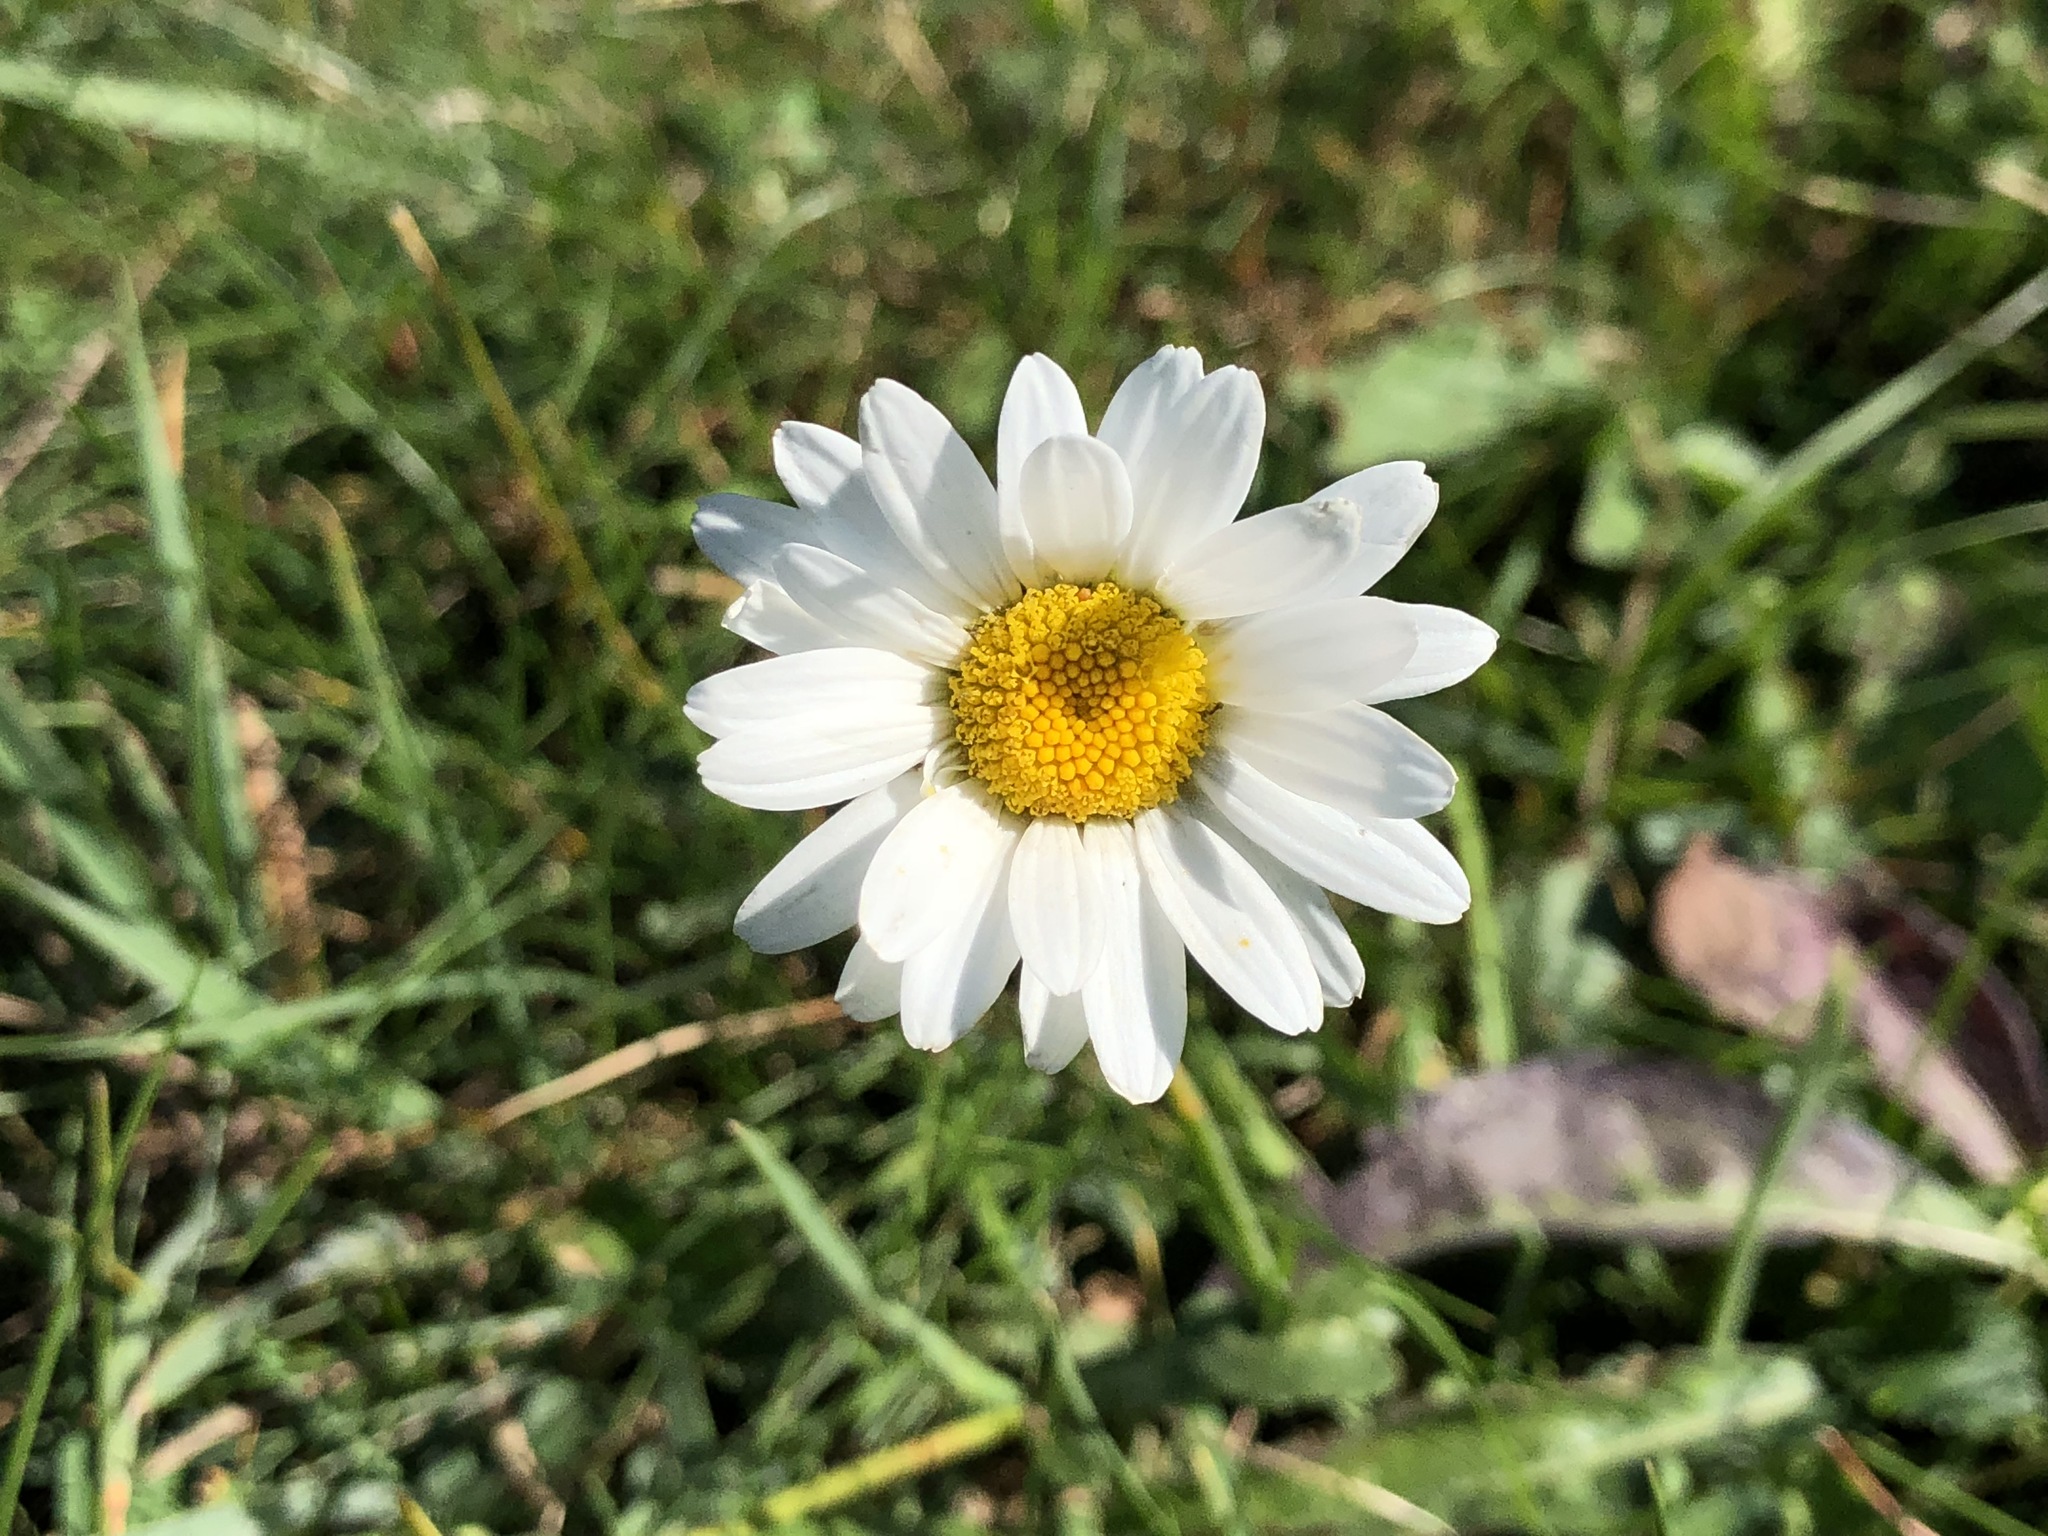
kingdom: Plantae
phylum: Tracheophyta
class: Magnoliopsida
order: Asterales
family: Asteraceae
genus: Leucanthemum
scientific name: Leucanthemum vulgare
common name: Oxeye daisy
